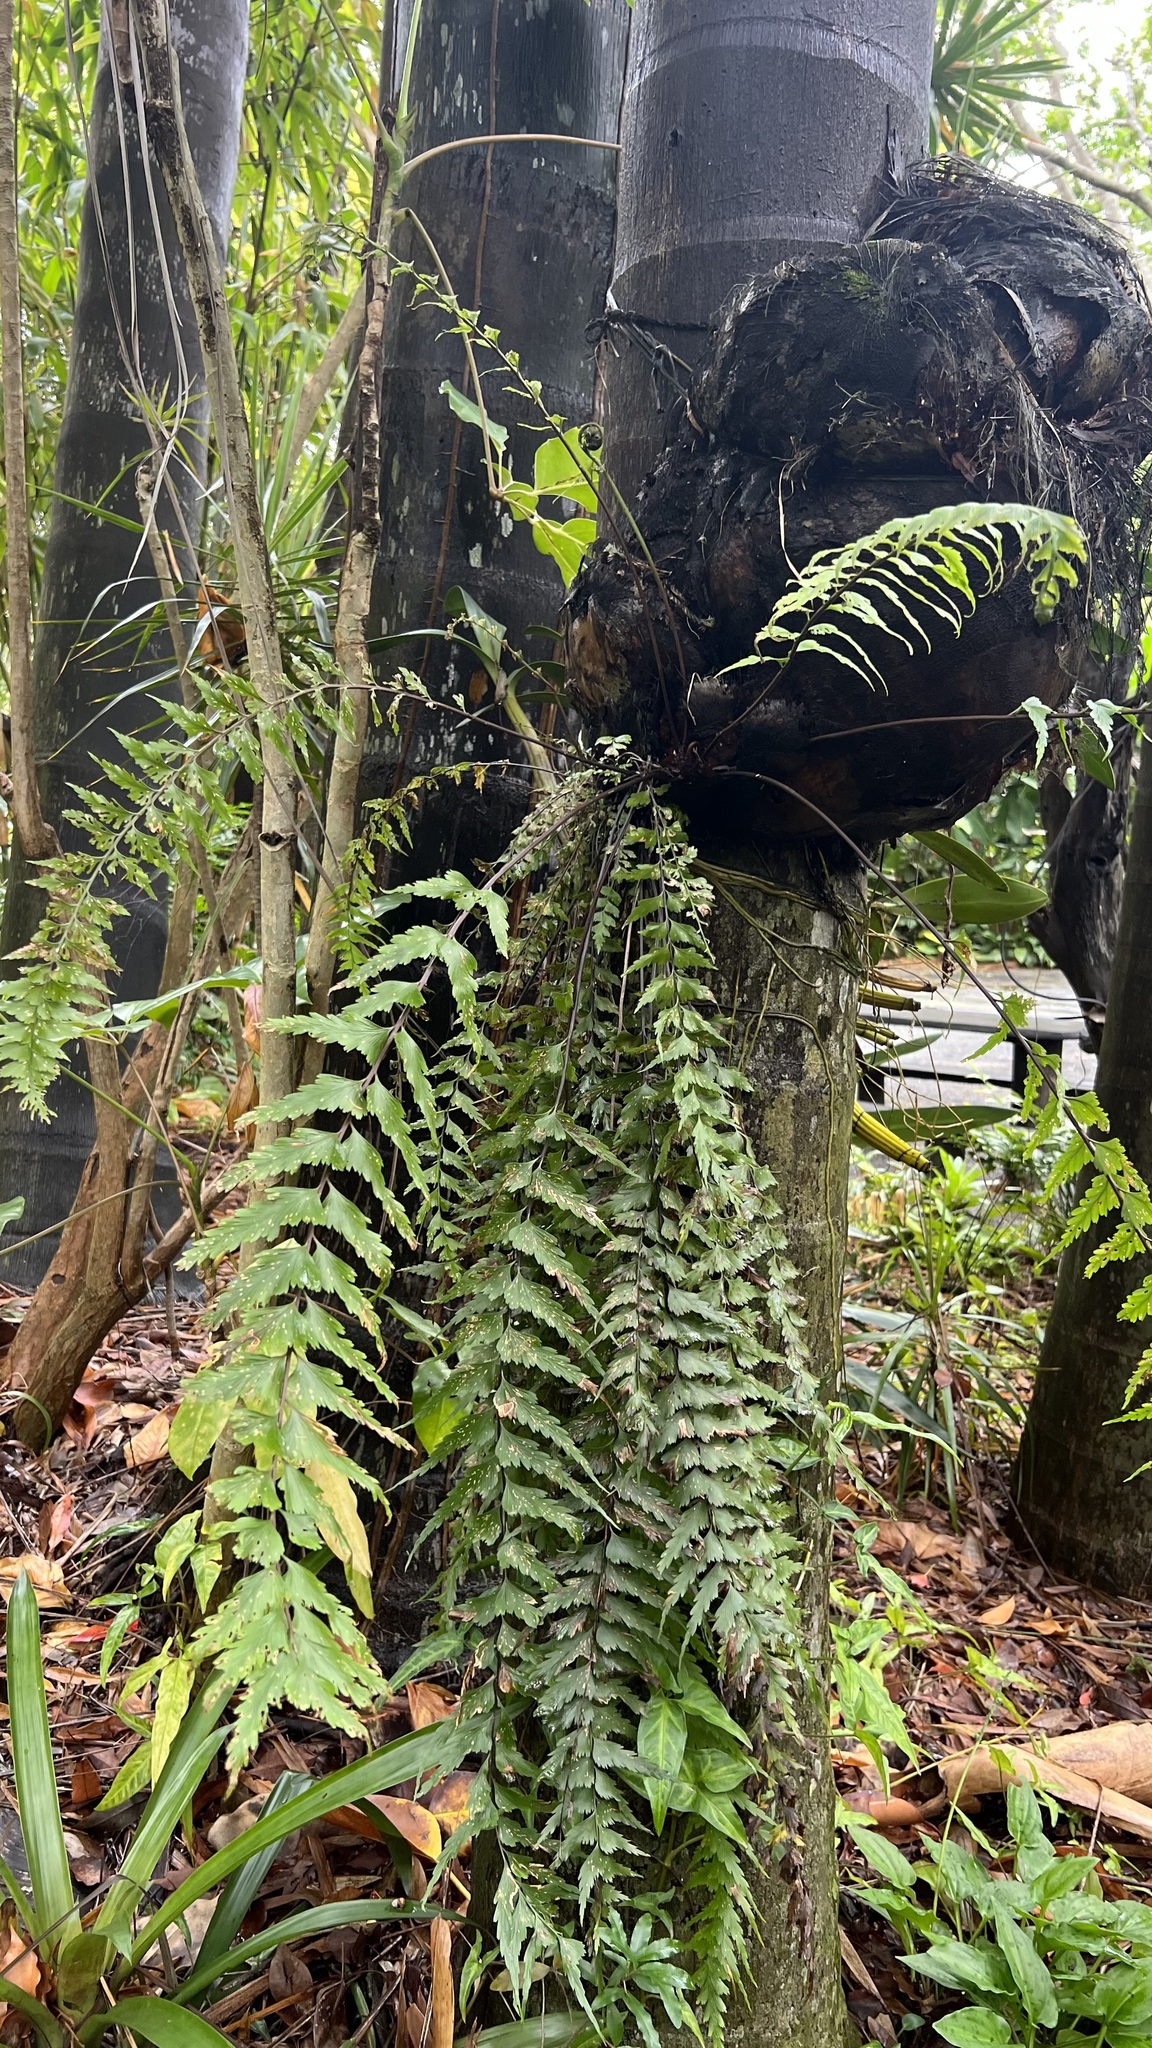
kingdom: Plantae
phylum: Tracheophyta
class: Polypodiopsida
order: Polypodiales
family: Aspleniaceae
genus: Asplenium
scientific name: Asplenium polyodon
